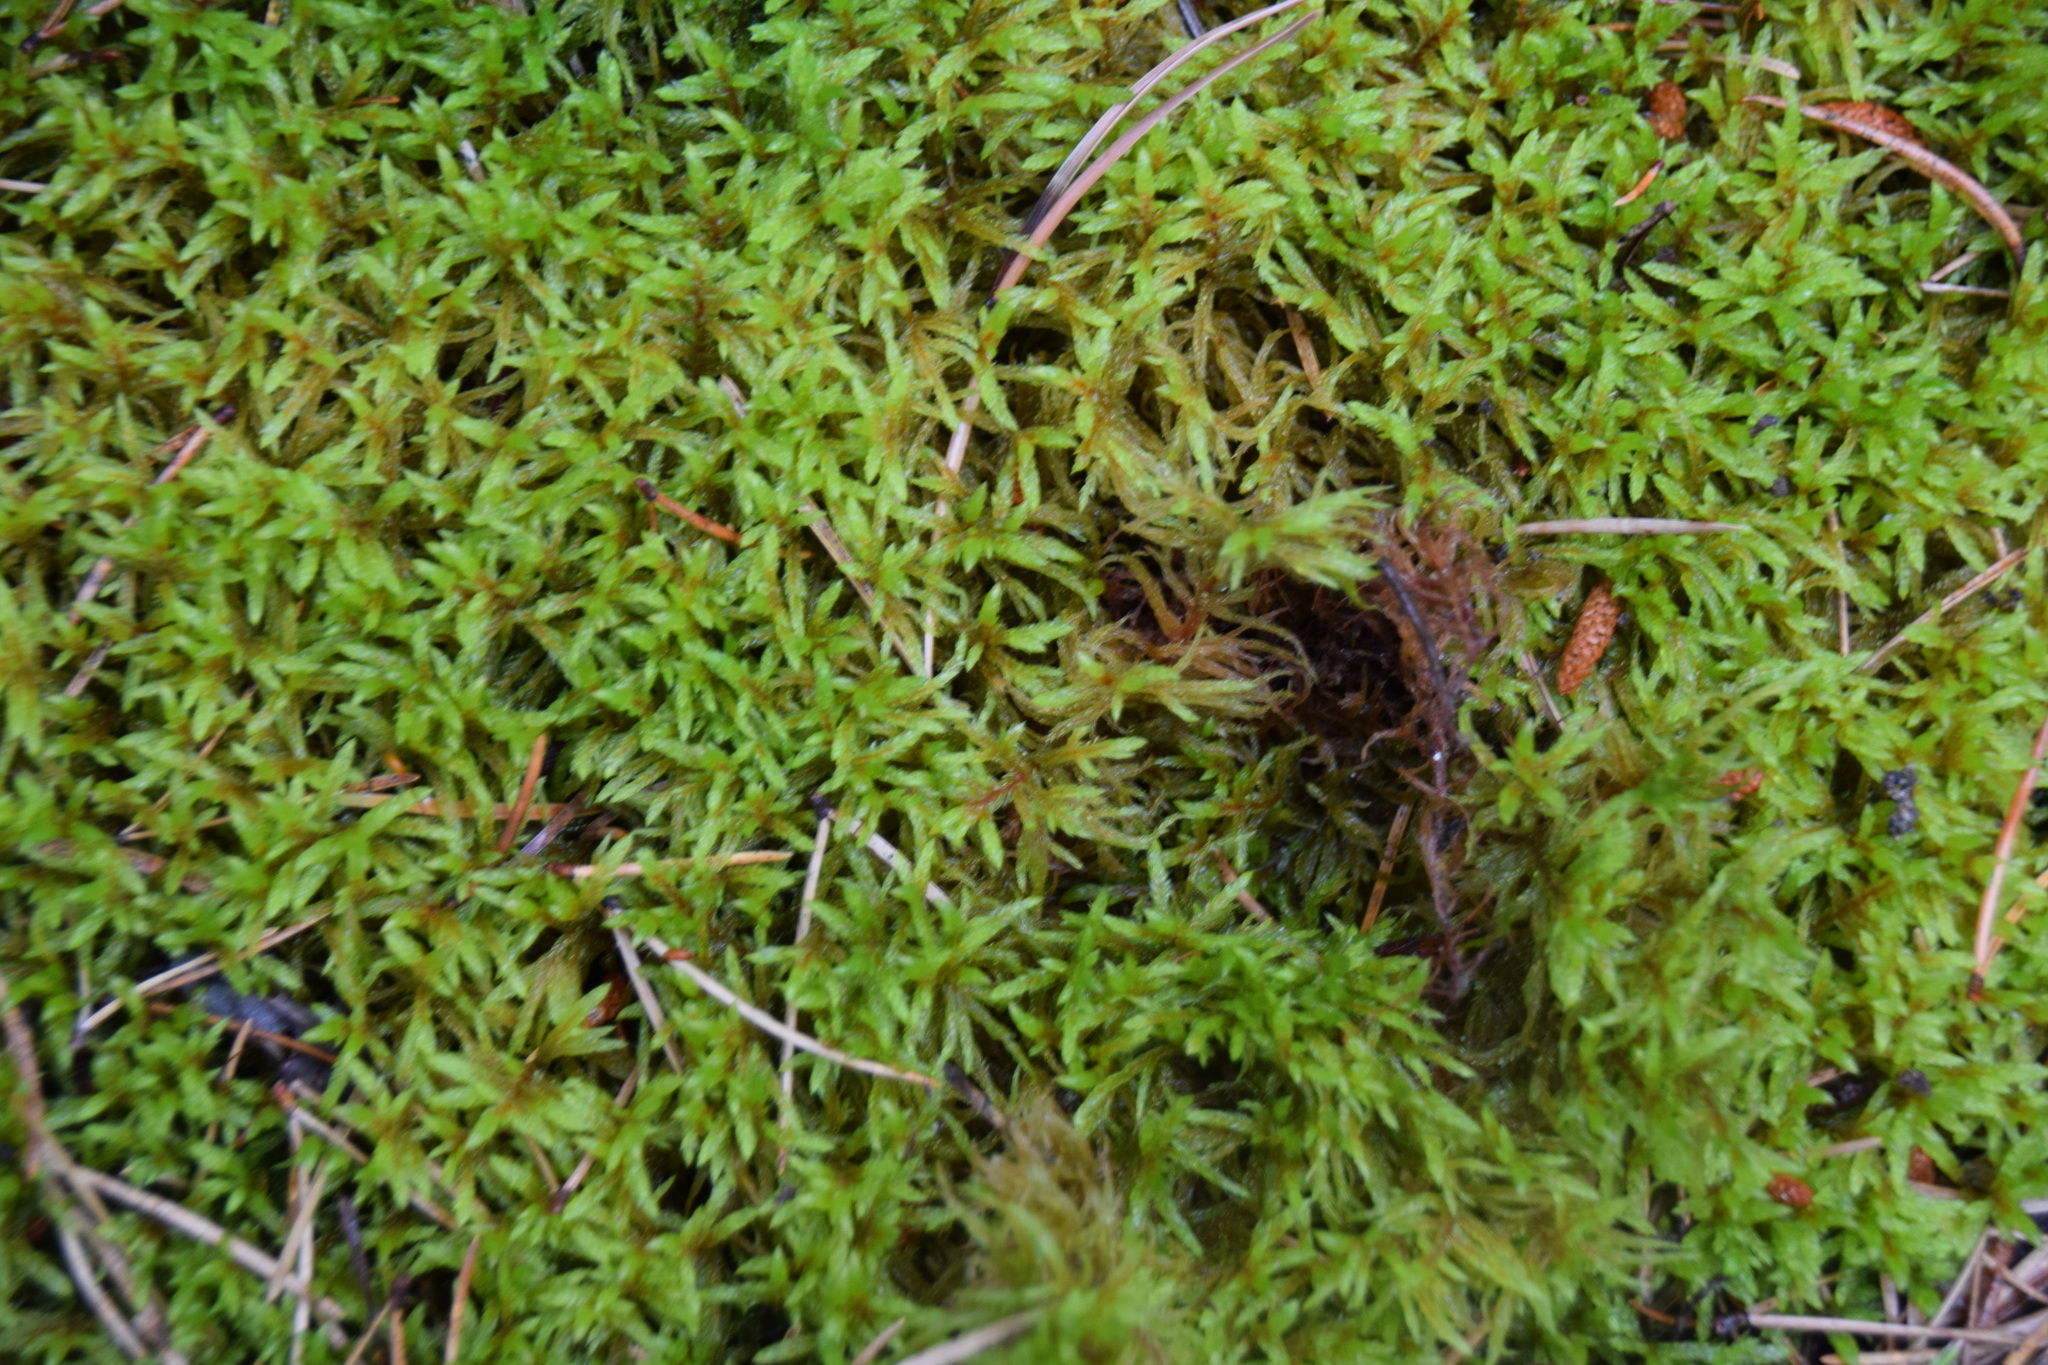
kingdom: Plantae
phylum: Bryophyta
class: Bryopsida
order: Hypnales
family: Hylocomiaceae
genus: Pleurozium
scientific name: Pleurozium schreberi
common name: Red-stemmed feather moss
